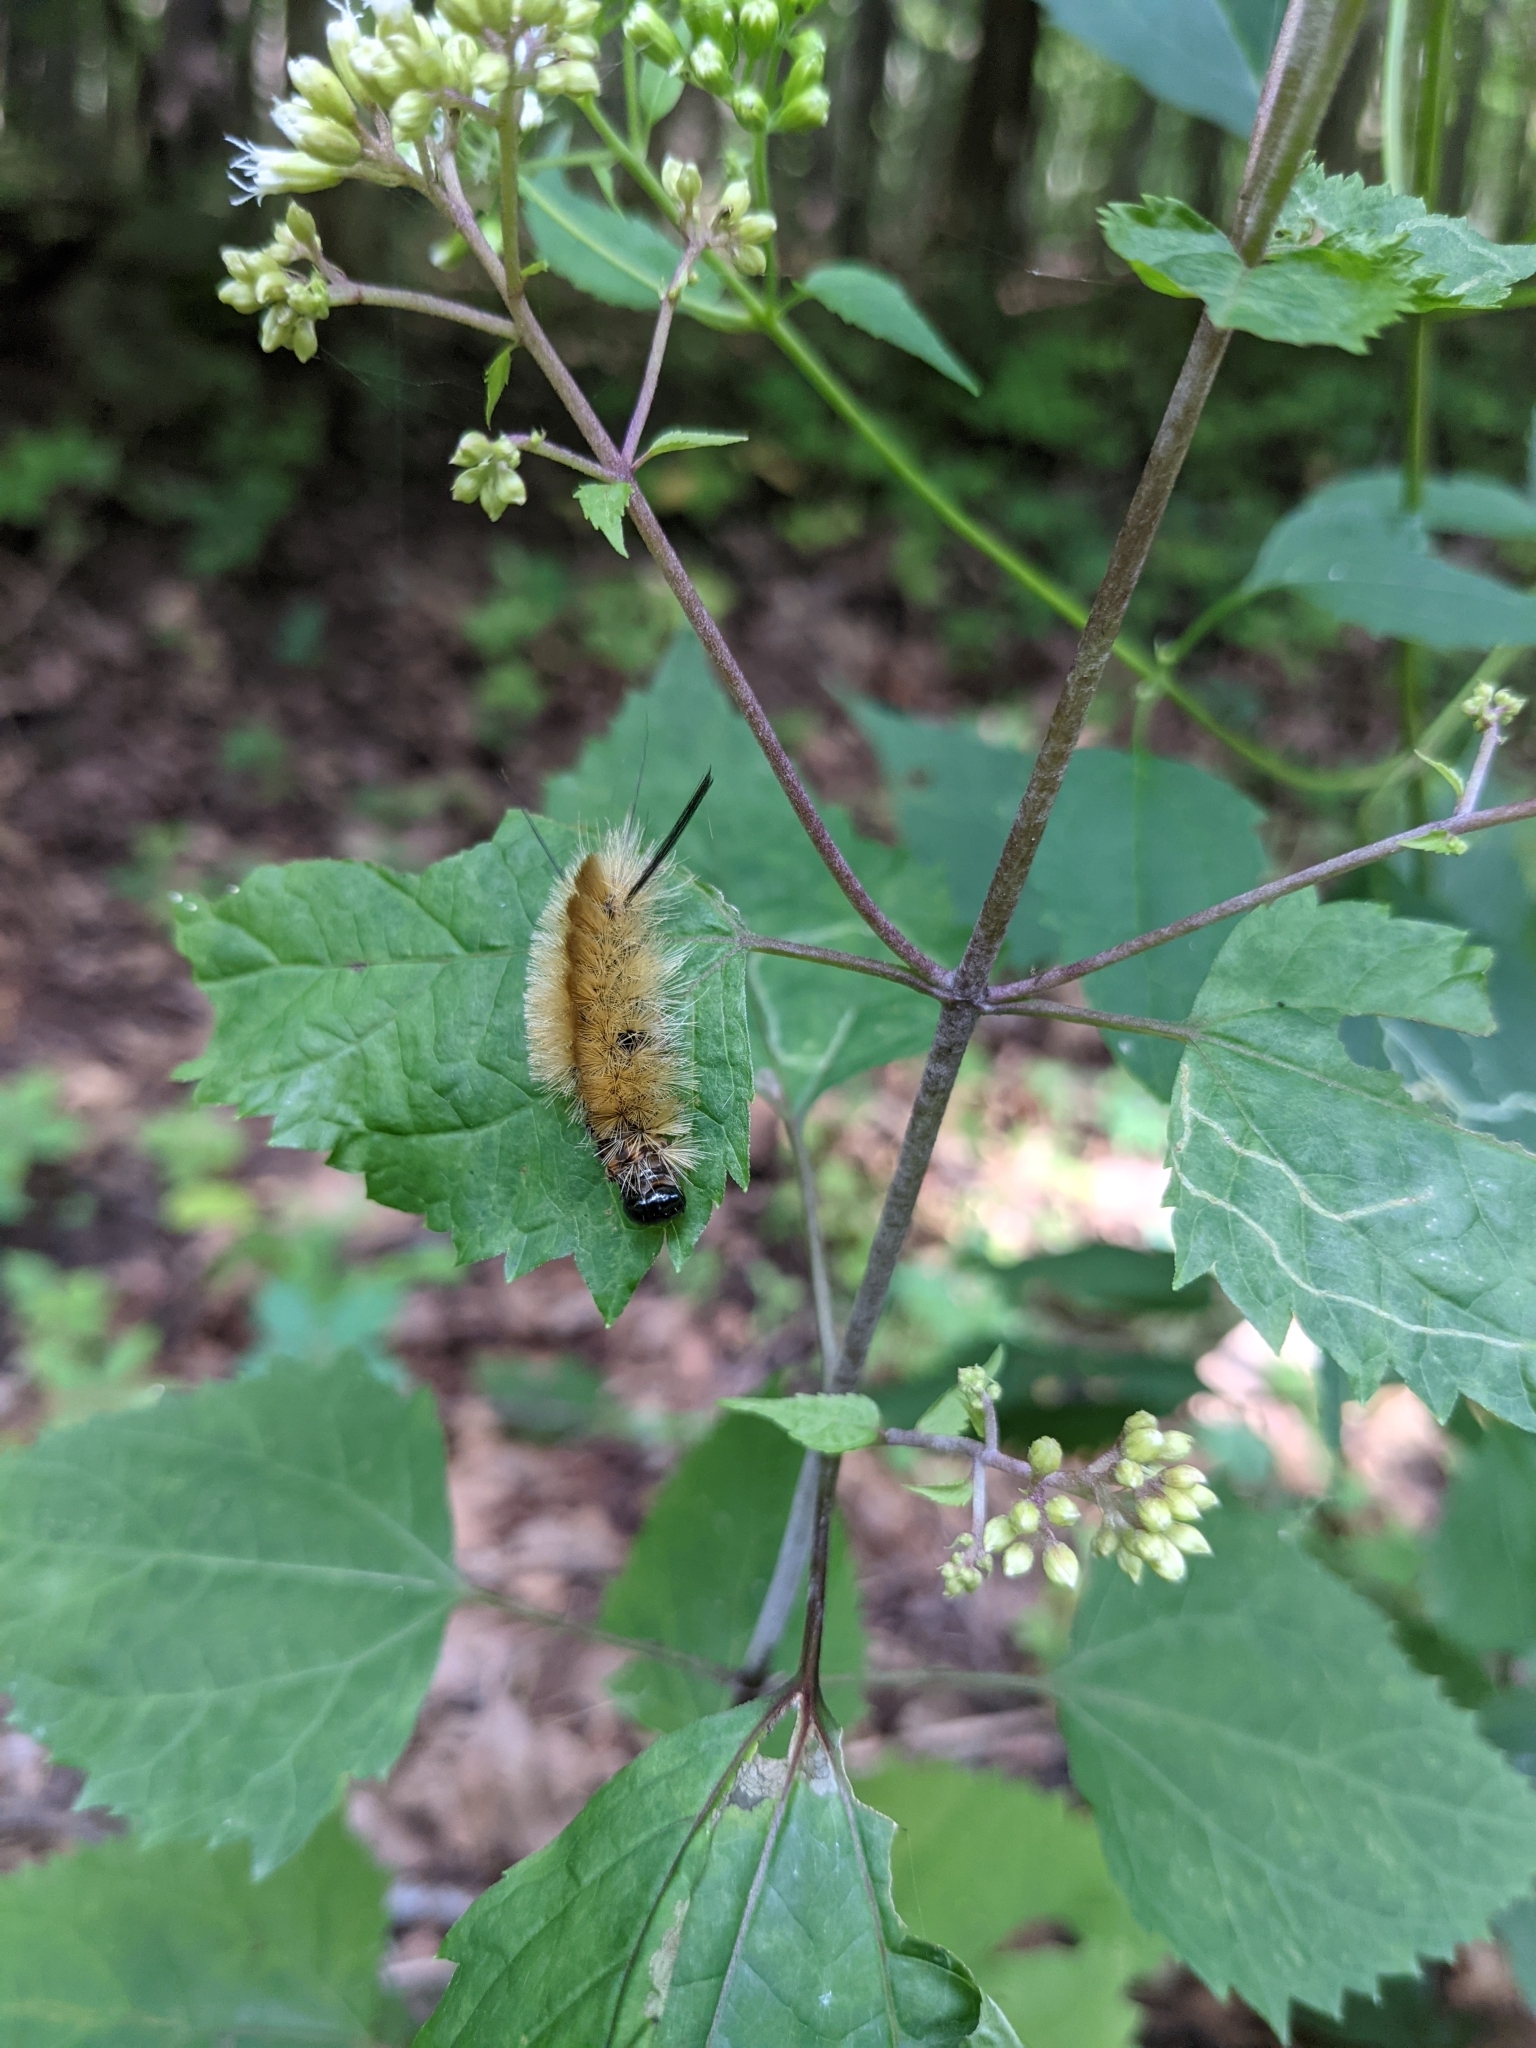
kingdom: Animalia
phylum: Arthropoda
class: Insecta
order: Lepidoptera
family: Erebidae
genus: Halysidota
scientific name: Halysidota tessellaris
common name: Banded tussock moth
